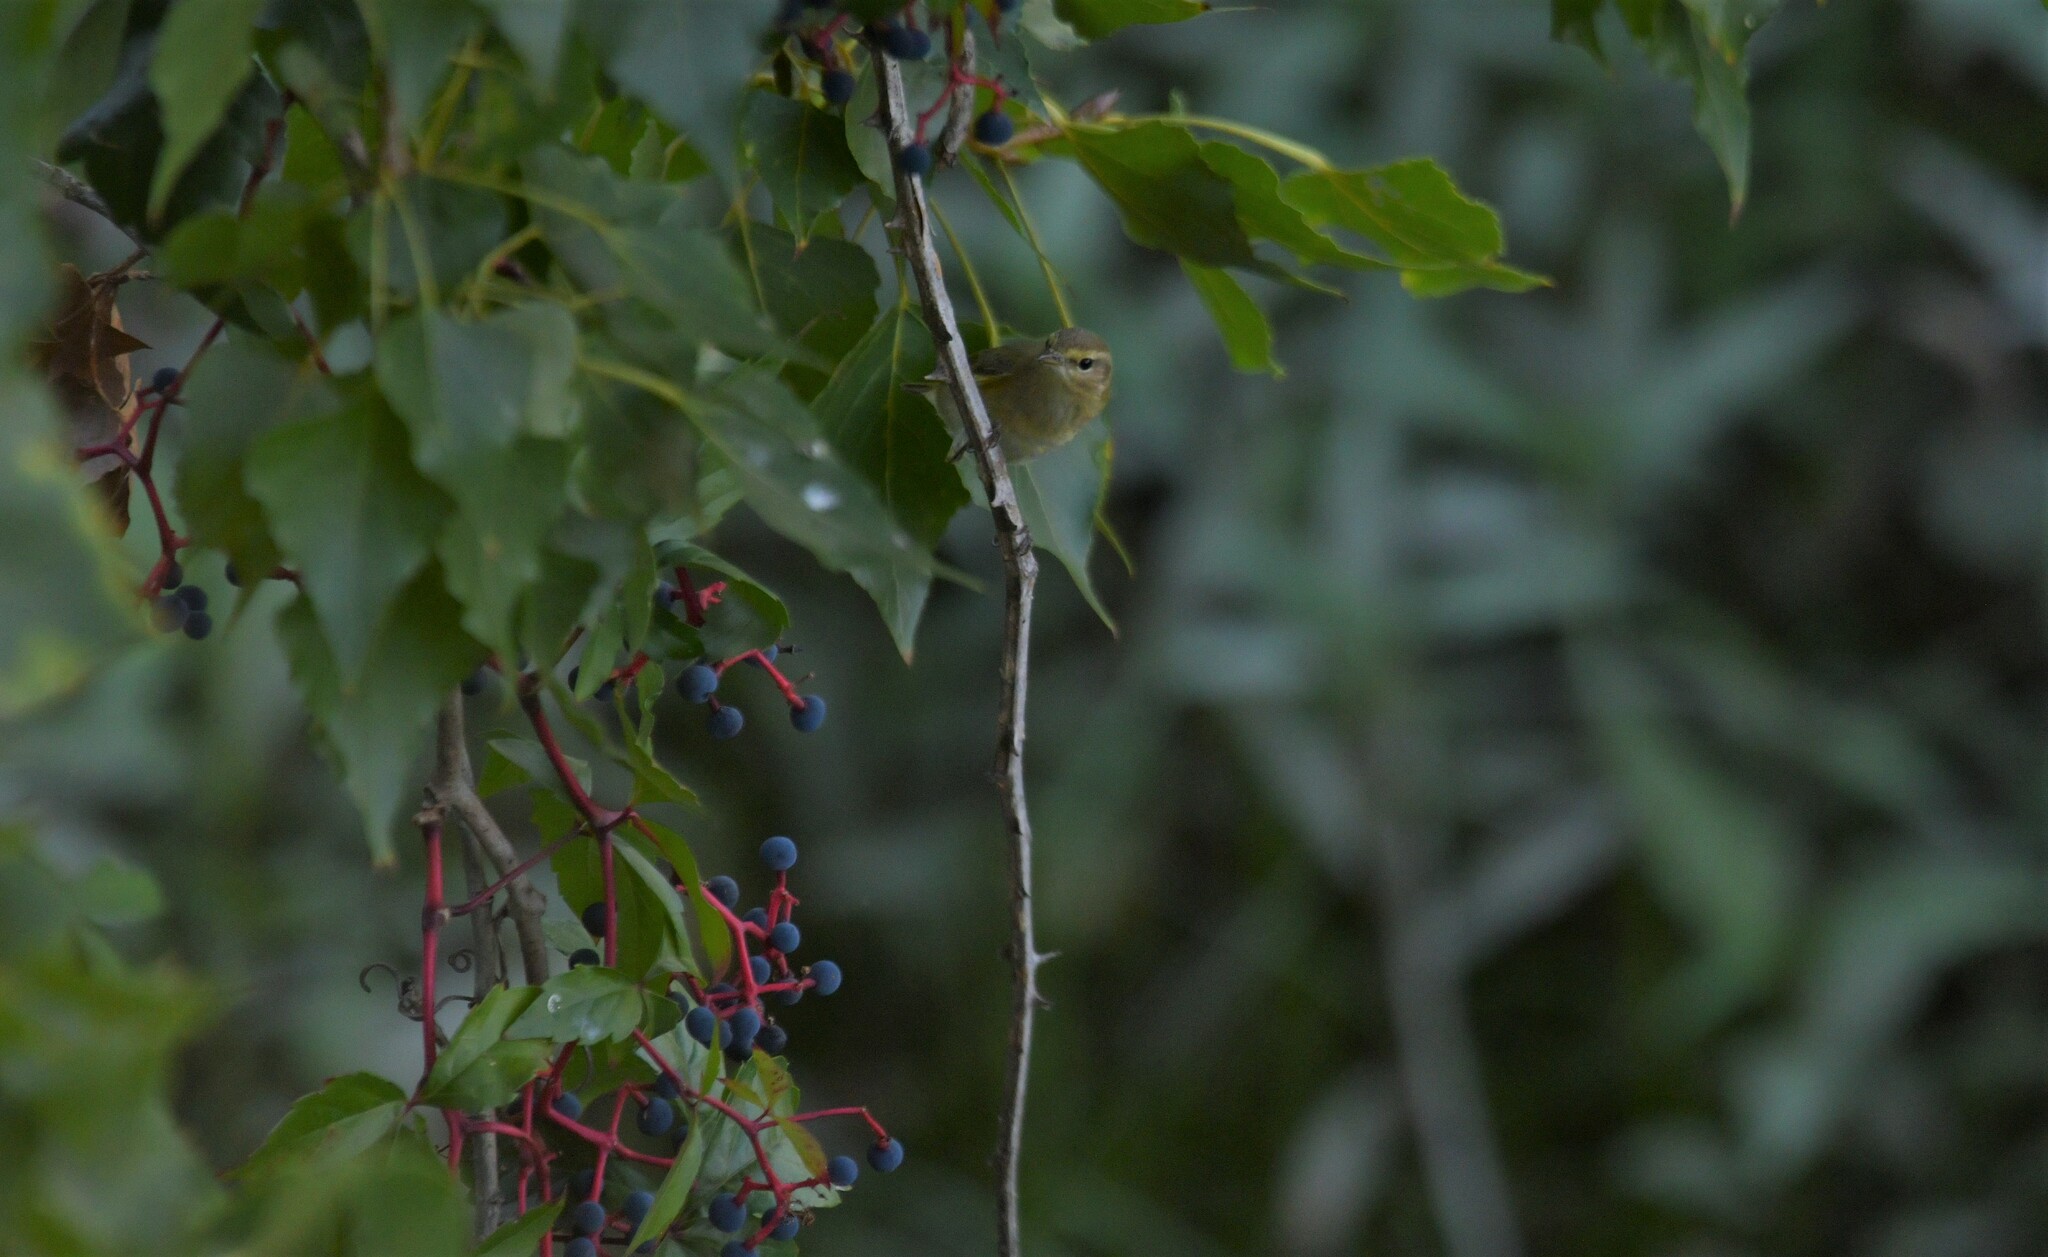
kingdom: Animalia
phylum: Chordata
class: Aves
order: Passeriformes
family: Phylloscopidae
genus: Phylloscopus
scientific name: Phylloscopus ibericus
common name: Iberian chiffchaff
